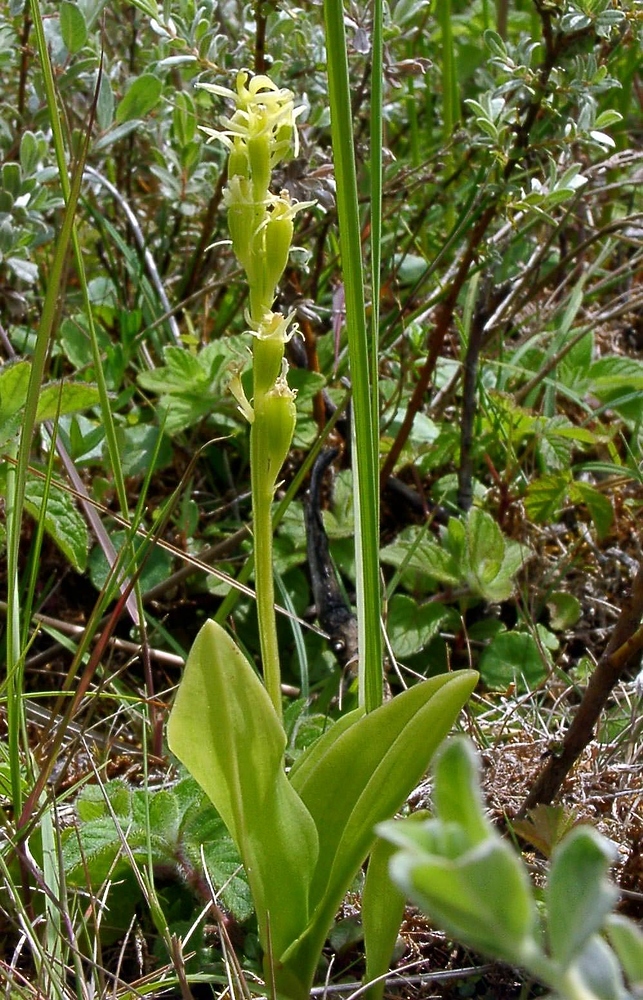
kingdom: Animalia
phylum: Arthropoda
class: Insecta
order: Coleoptera
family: Curculionidae
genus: Liparis
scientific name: Liparis loeselii
